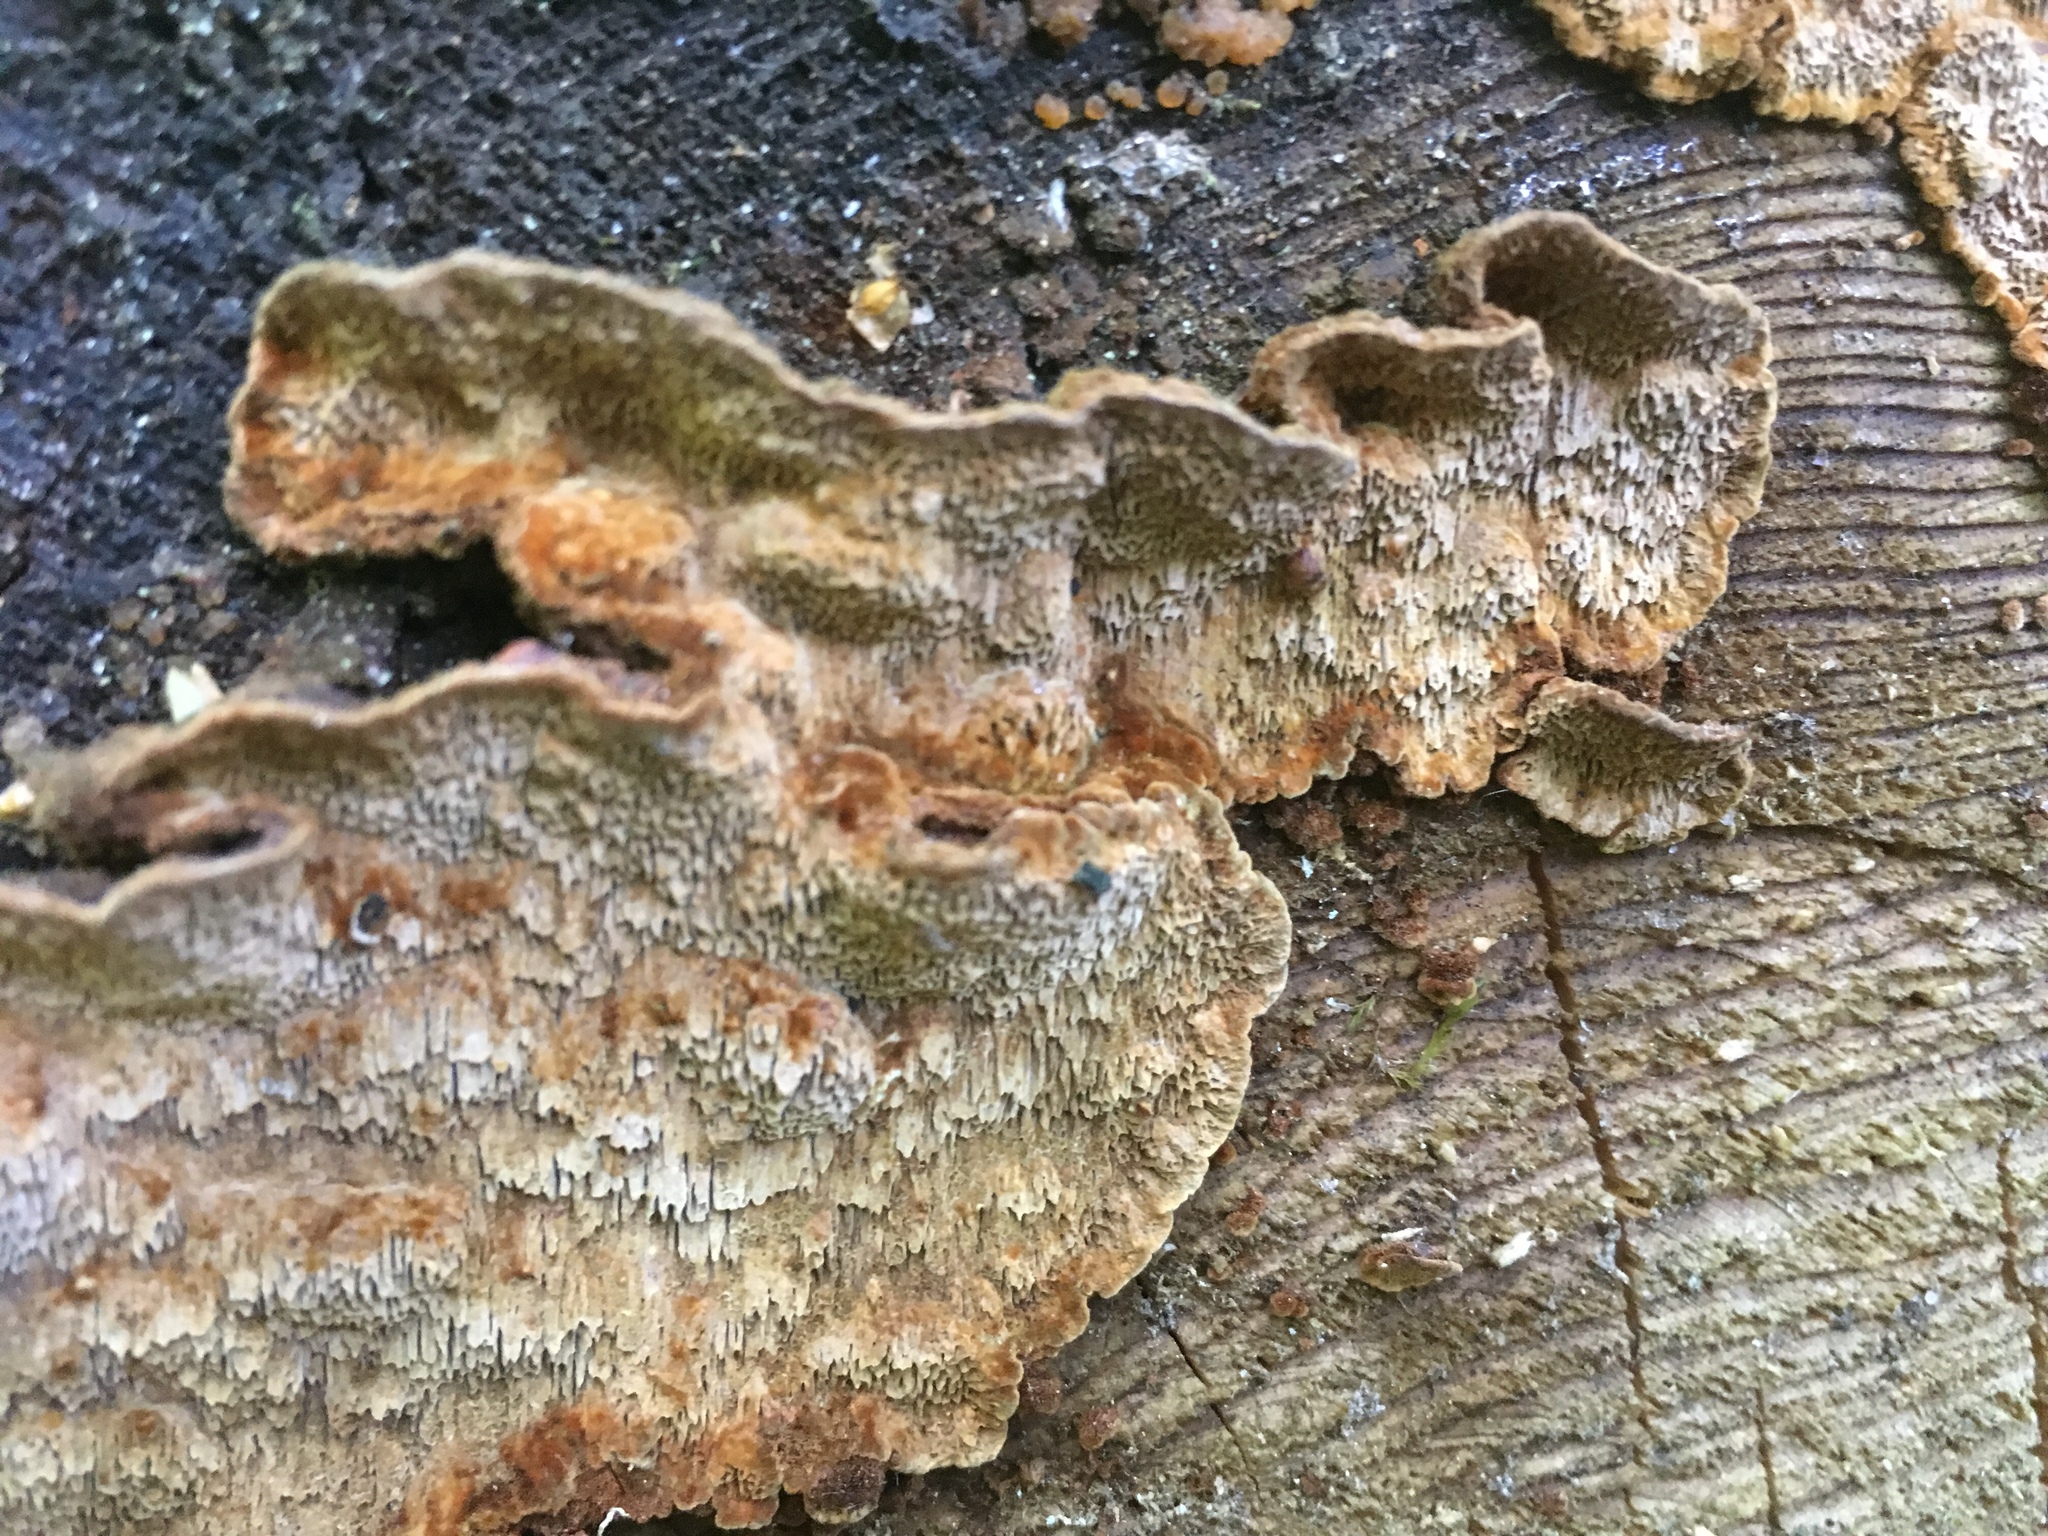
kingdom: Fungi
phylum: Basidiomycota
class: Agaricomycetes
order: Hymenochaetales
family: Hymenochaetaceae
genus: Phellinus
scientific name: Phellinus viticola
